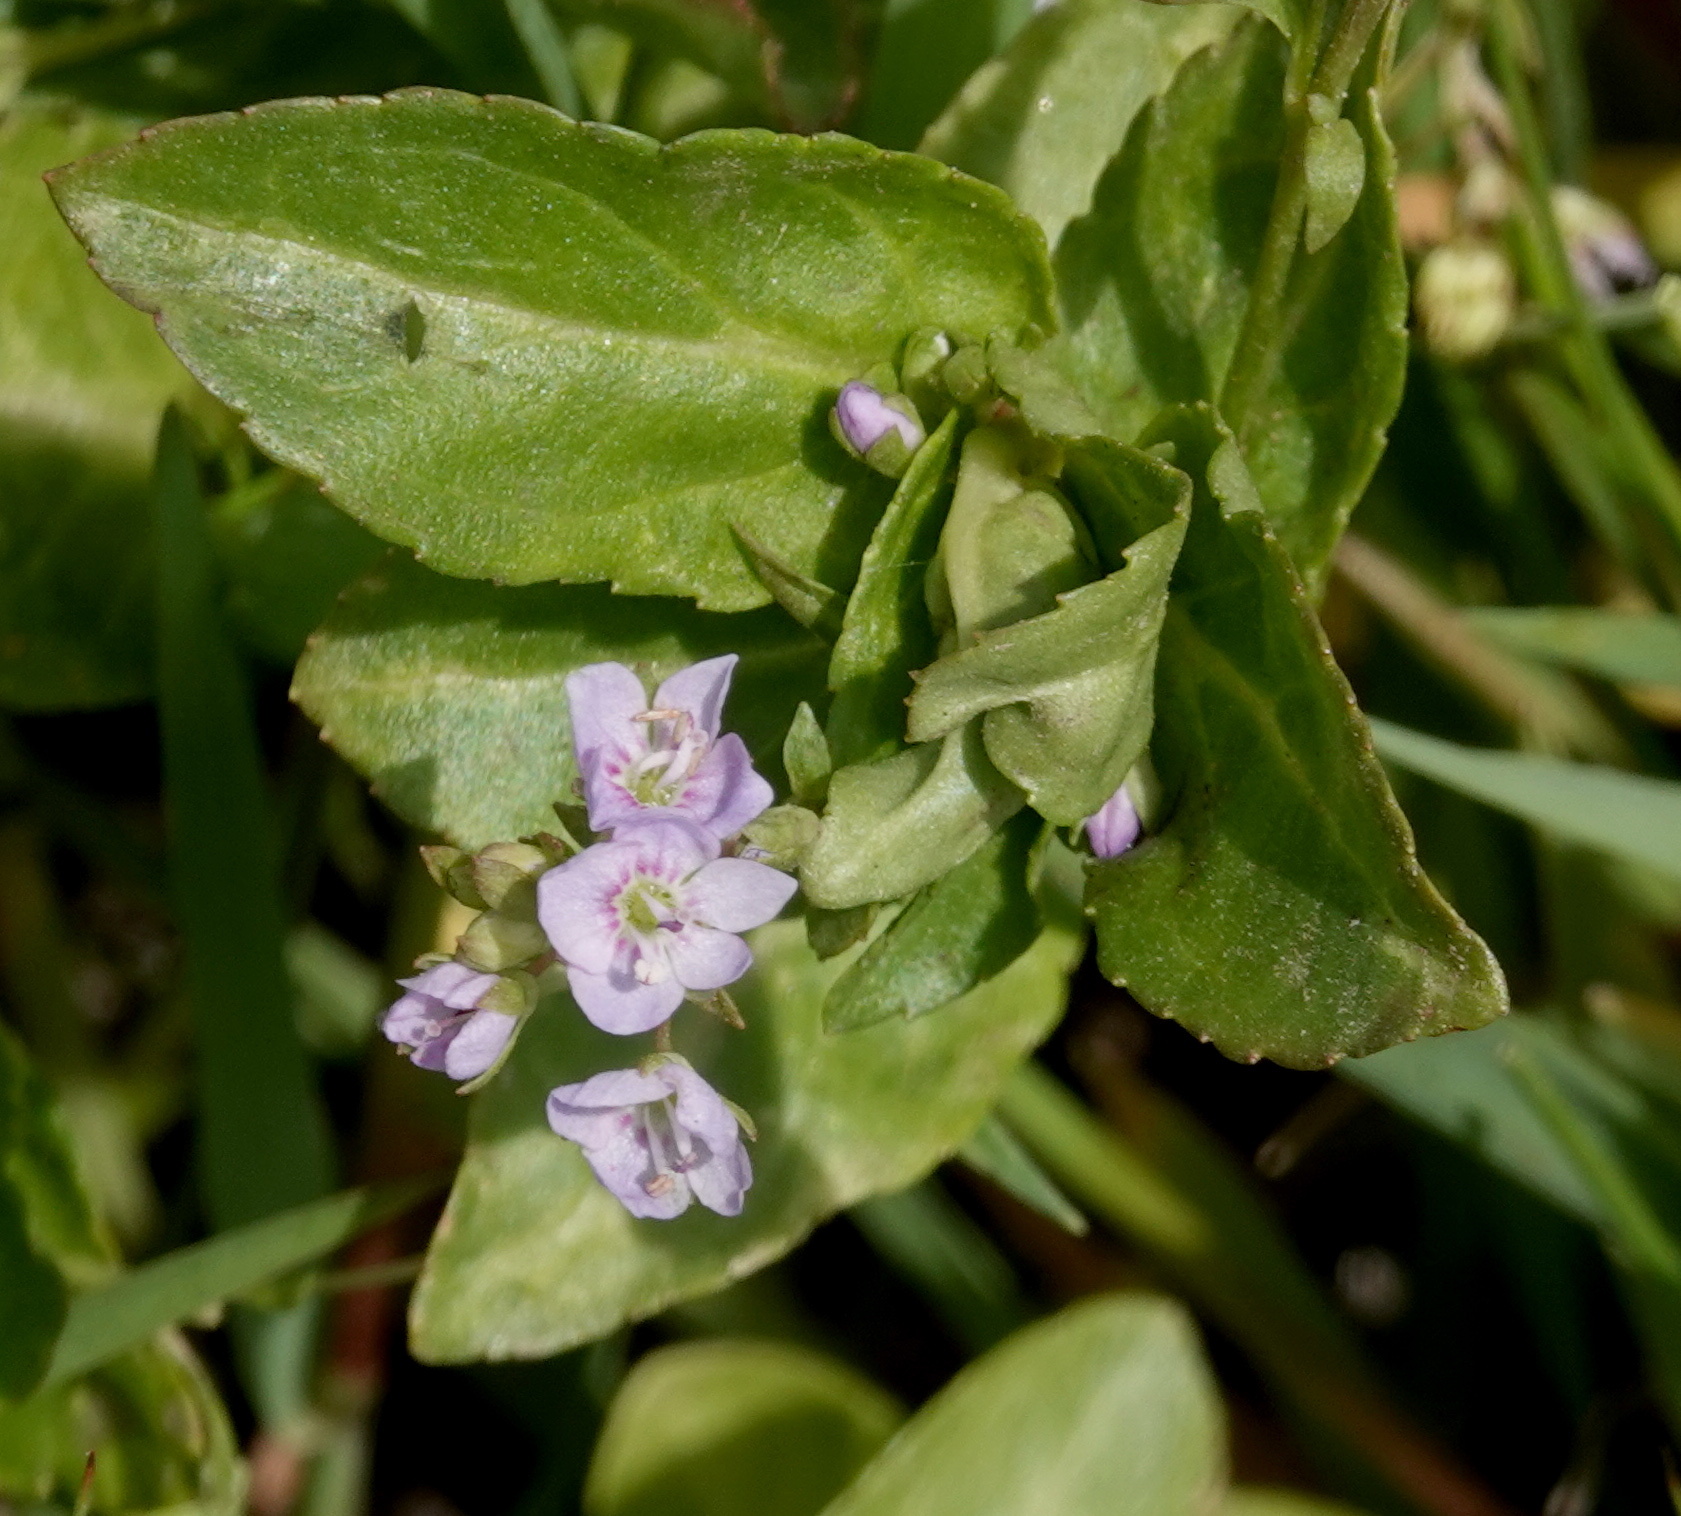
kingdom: Plantae
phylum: Tracheophyta
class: Magnoliopsida
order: Lamiales
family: Plantaginaceae
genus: Veronica
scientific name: Veronica americana
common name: American brooklime
